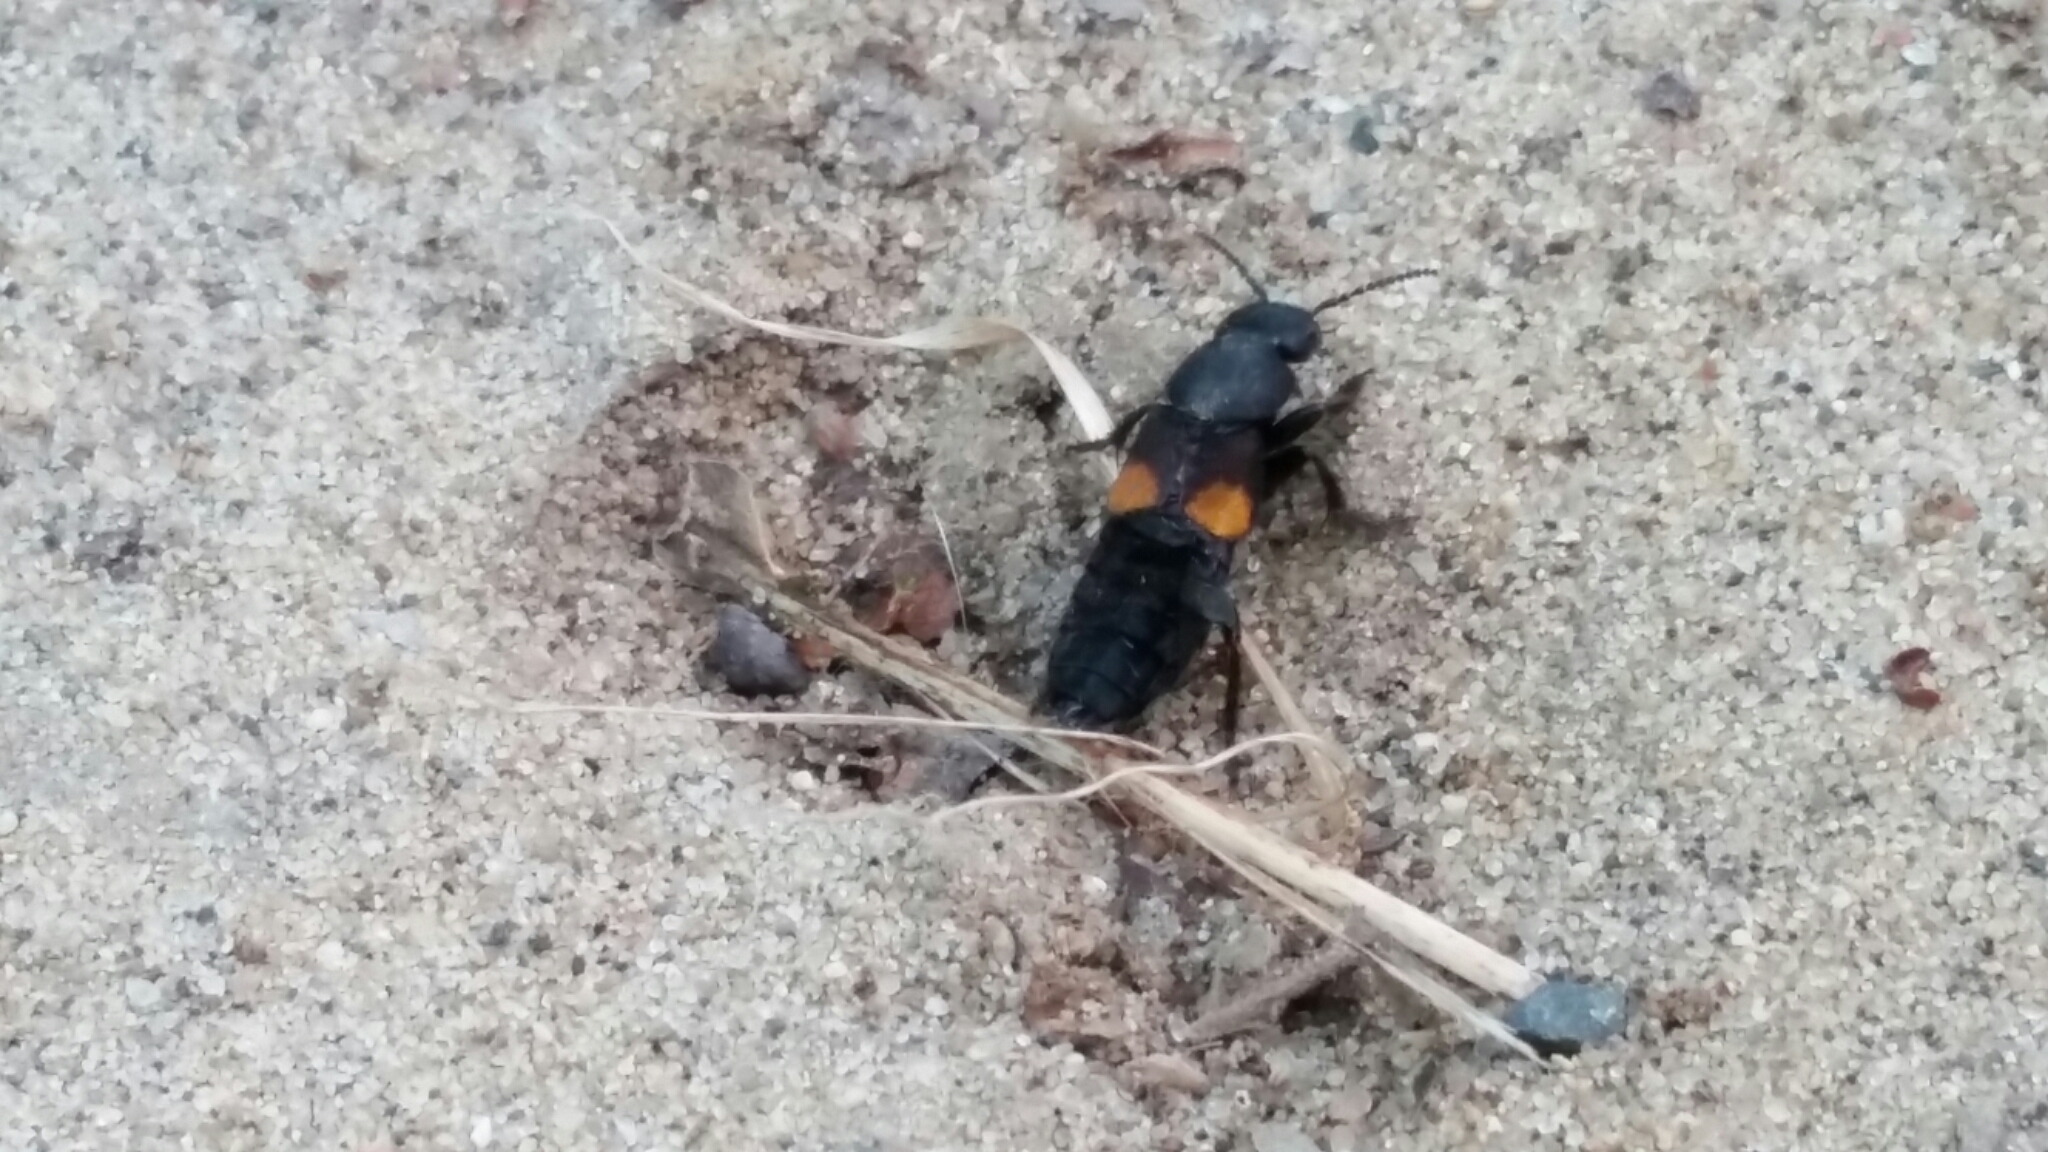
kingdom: Animalia
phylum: Arthropoda
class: Insecta
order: Coleoptera
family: Staphylinidae
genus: Platydracus
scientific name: Platydracus fossator
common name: Red-spotted rove beetle
